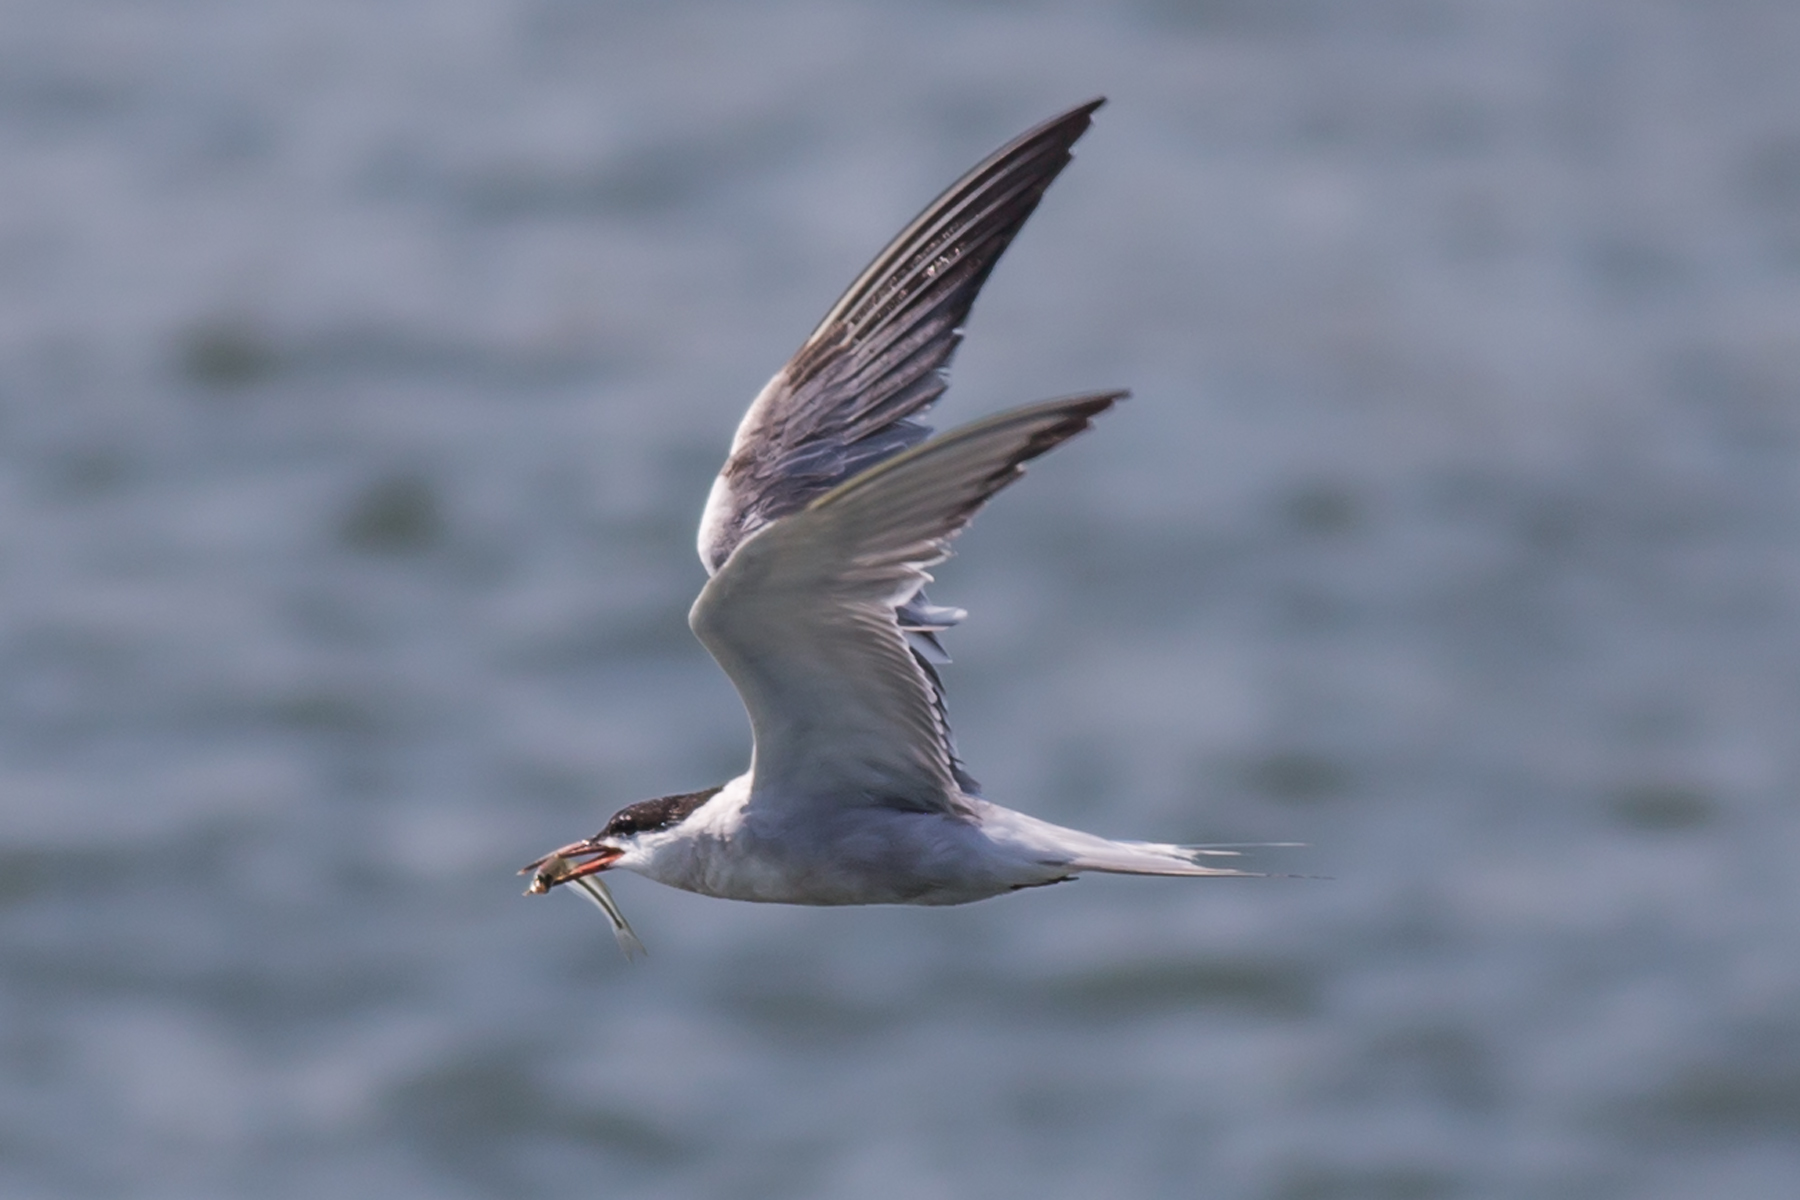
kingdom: Animalia
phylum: Chordata
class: Aves
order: Charadriiformes
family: Laridae
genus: Sterna
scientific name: Sterna hirundo
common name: Common tern
